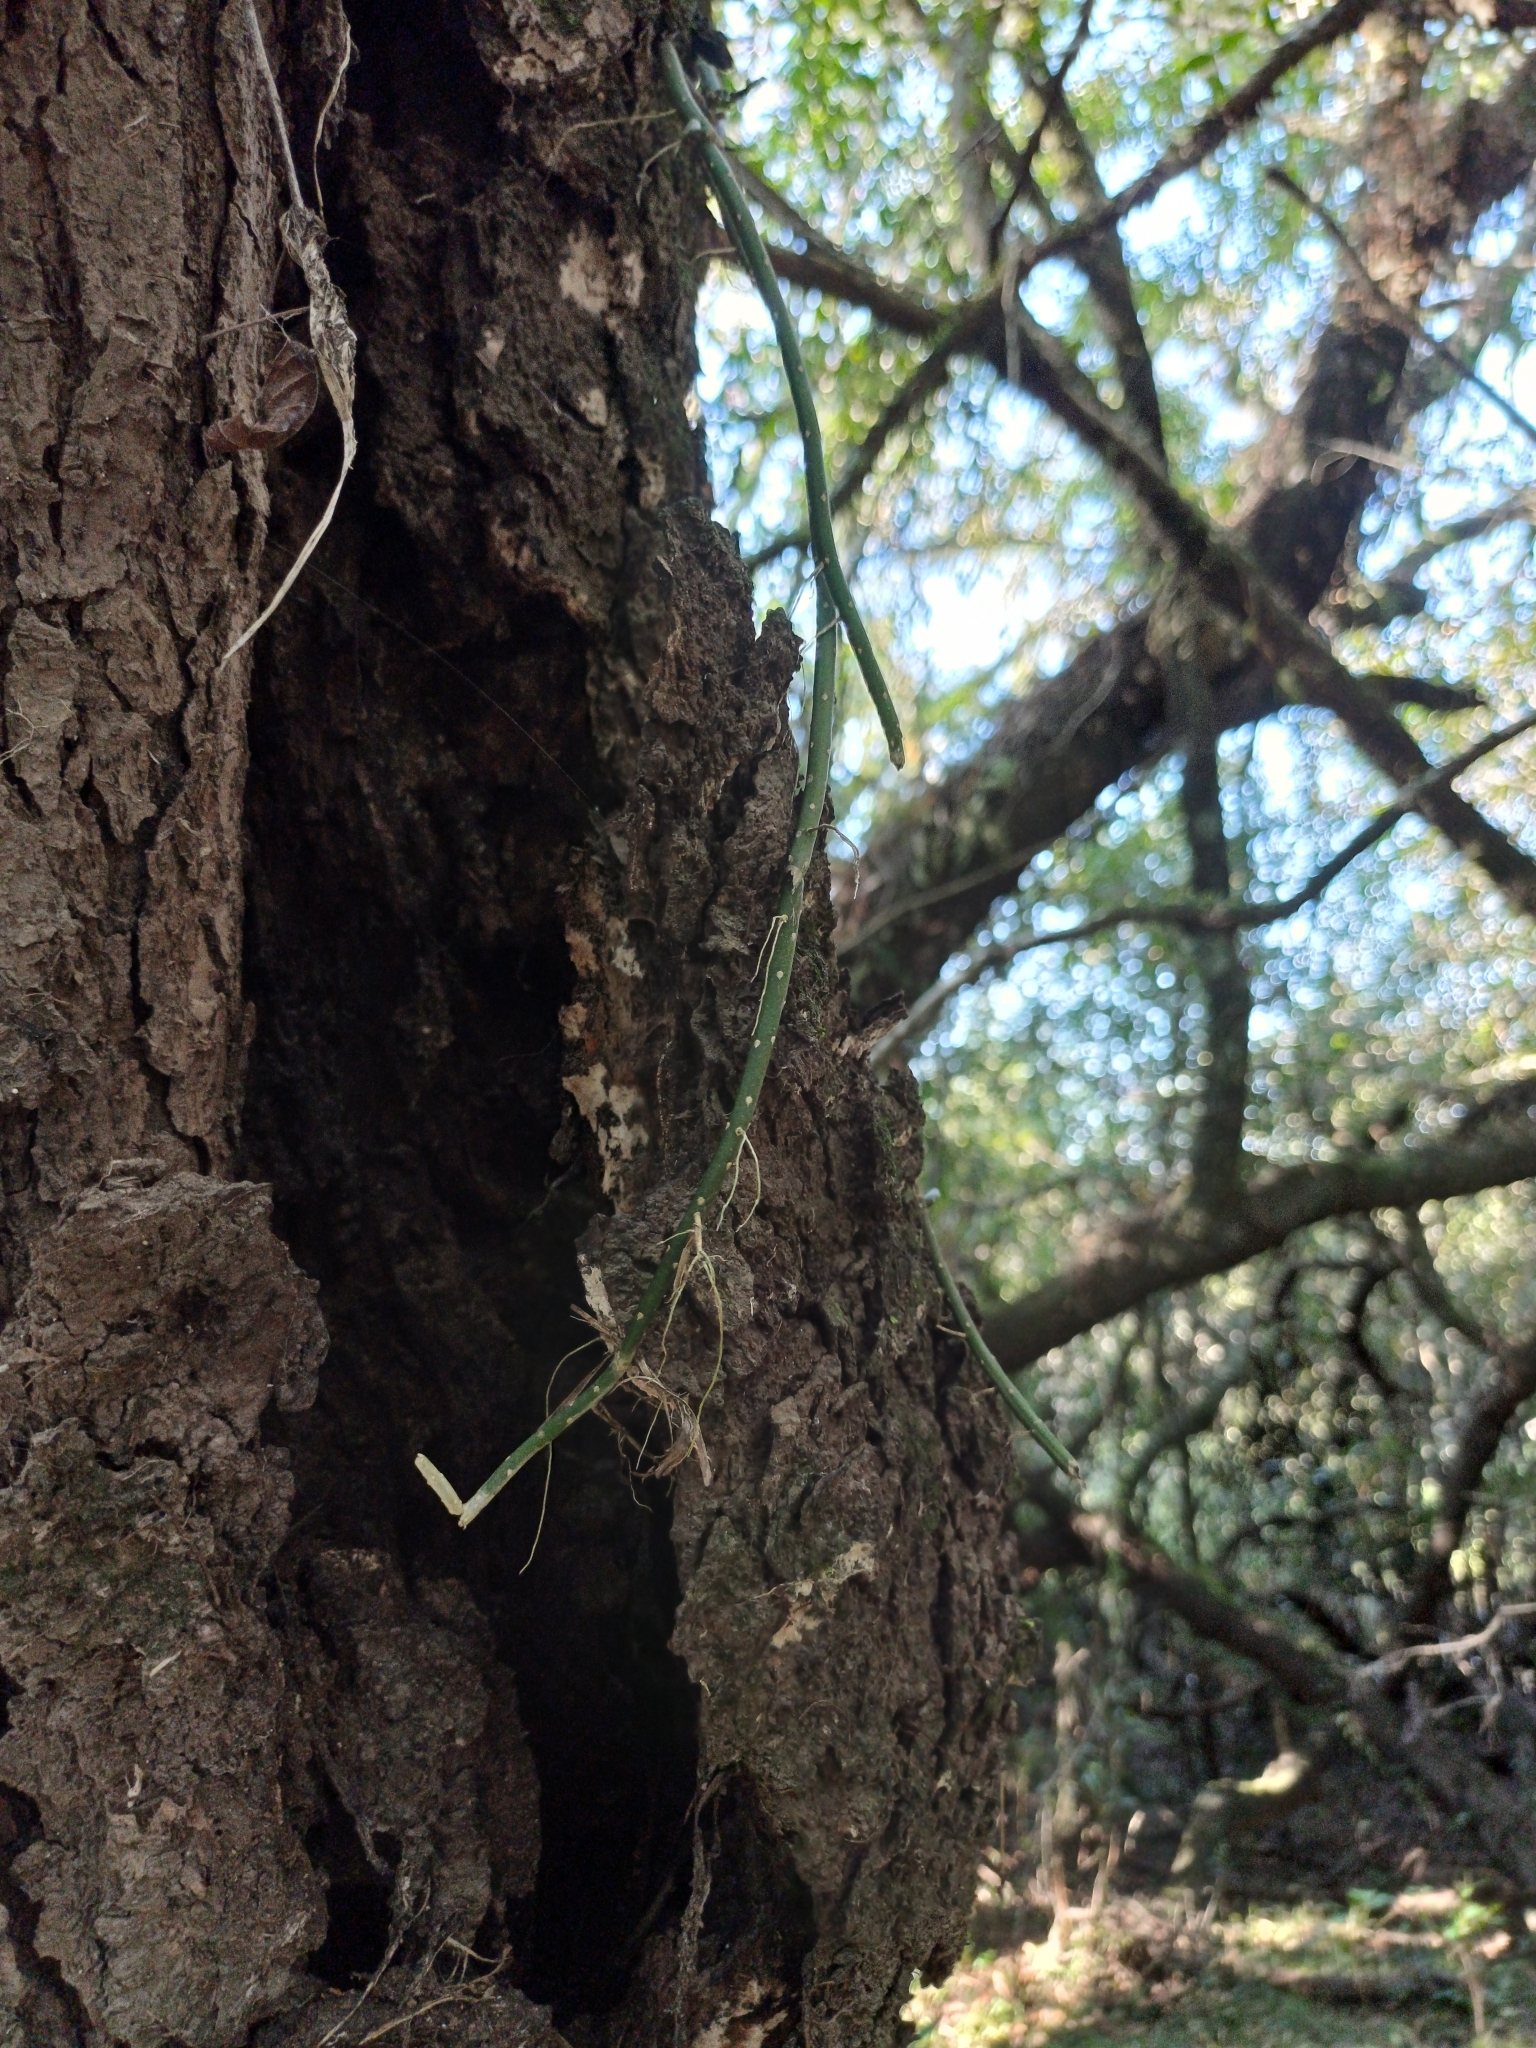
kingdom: Plantae
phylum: Tracheophyta
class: Magnoliopsida
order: Caryophyllales
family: Cactaceae
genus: Lepismium
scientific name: Lepismium lumbricoides
